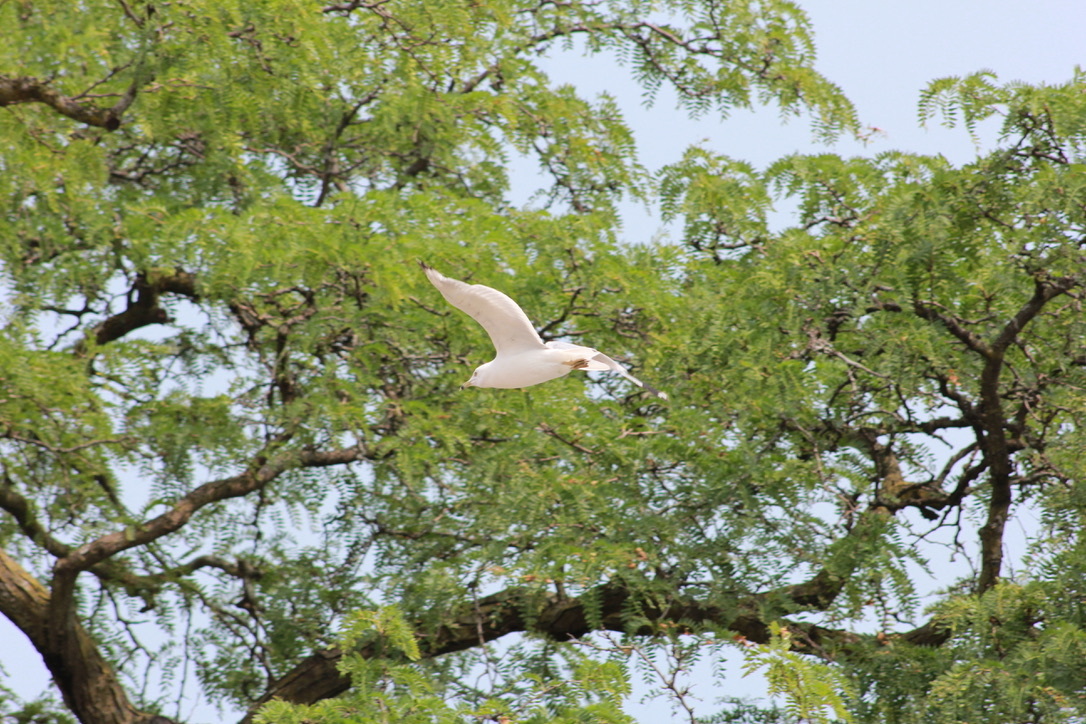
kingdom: Animalia
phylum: Chordata
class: Aves
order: Charadriiformes
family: Laridae
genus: Larus
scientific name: Larus delawarensis
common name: Ring-billed gull
